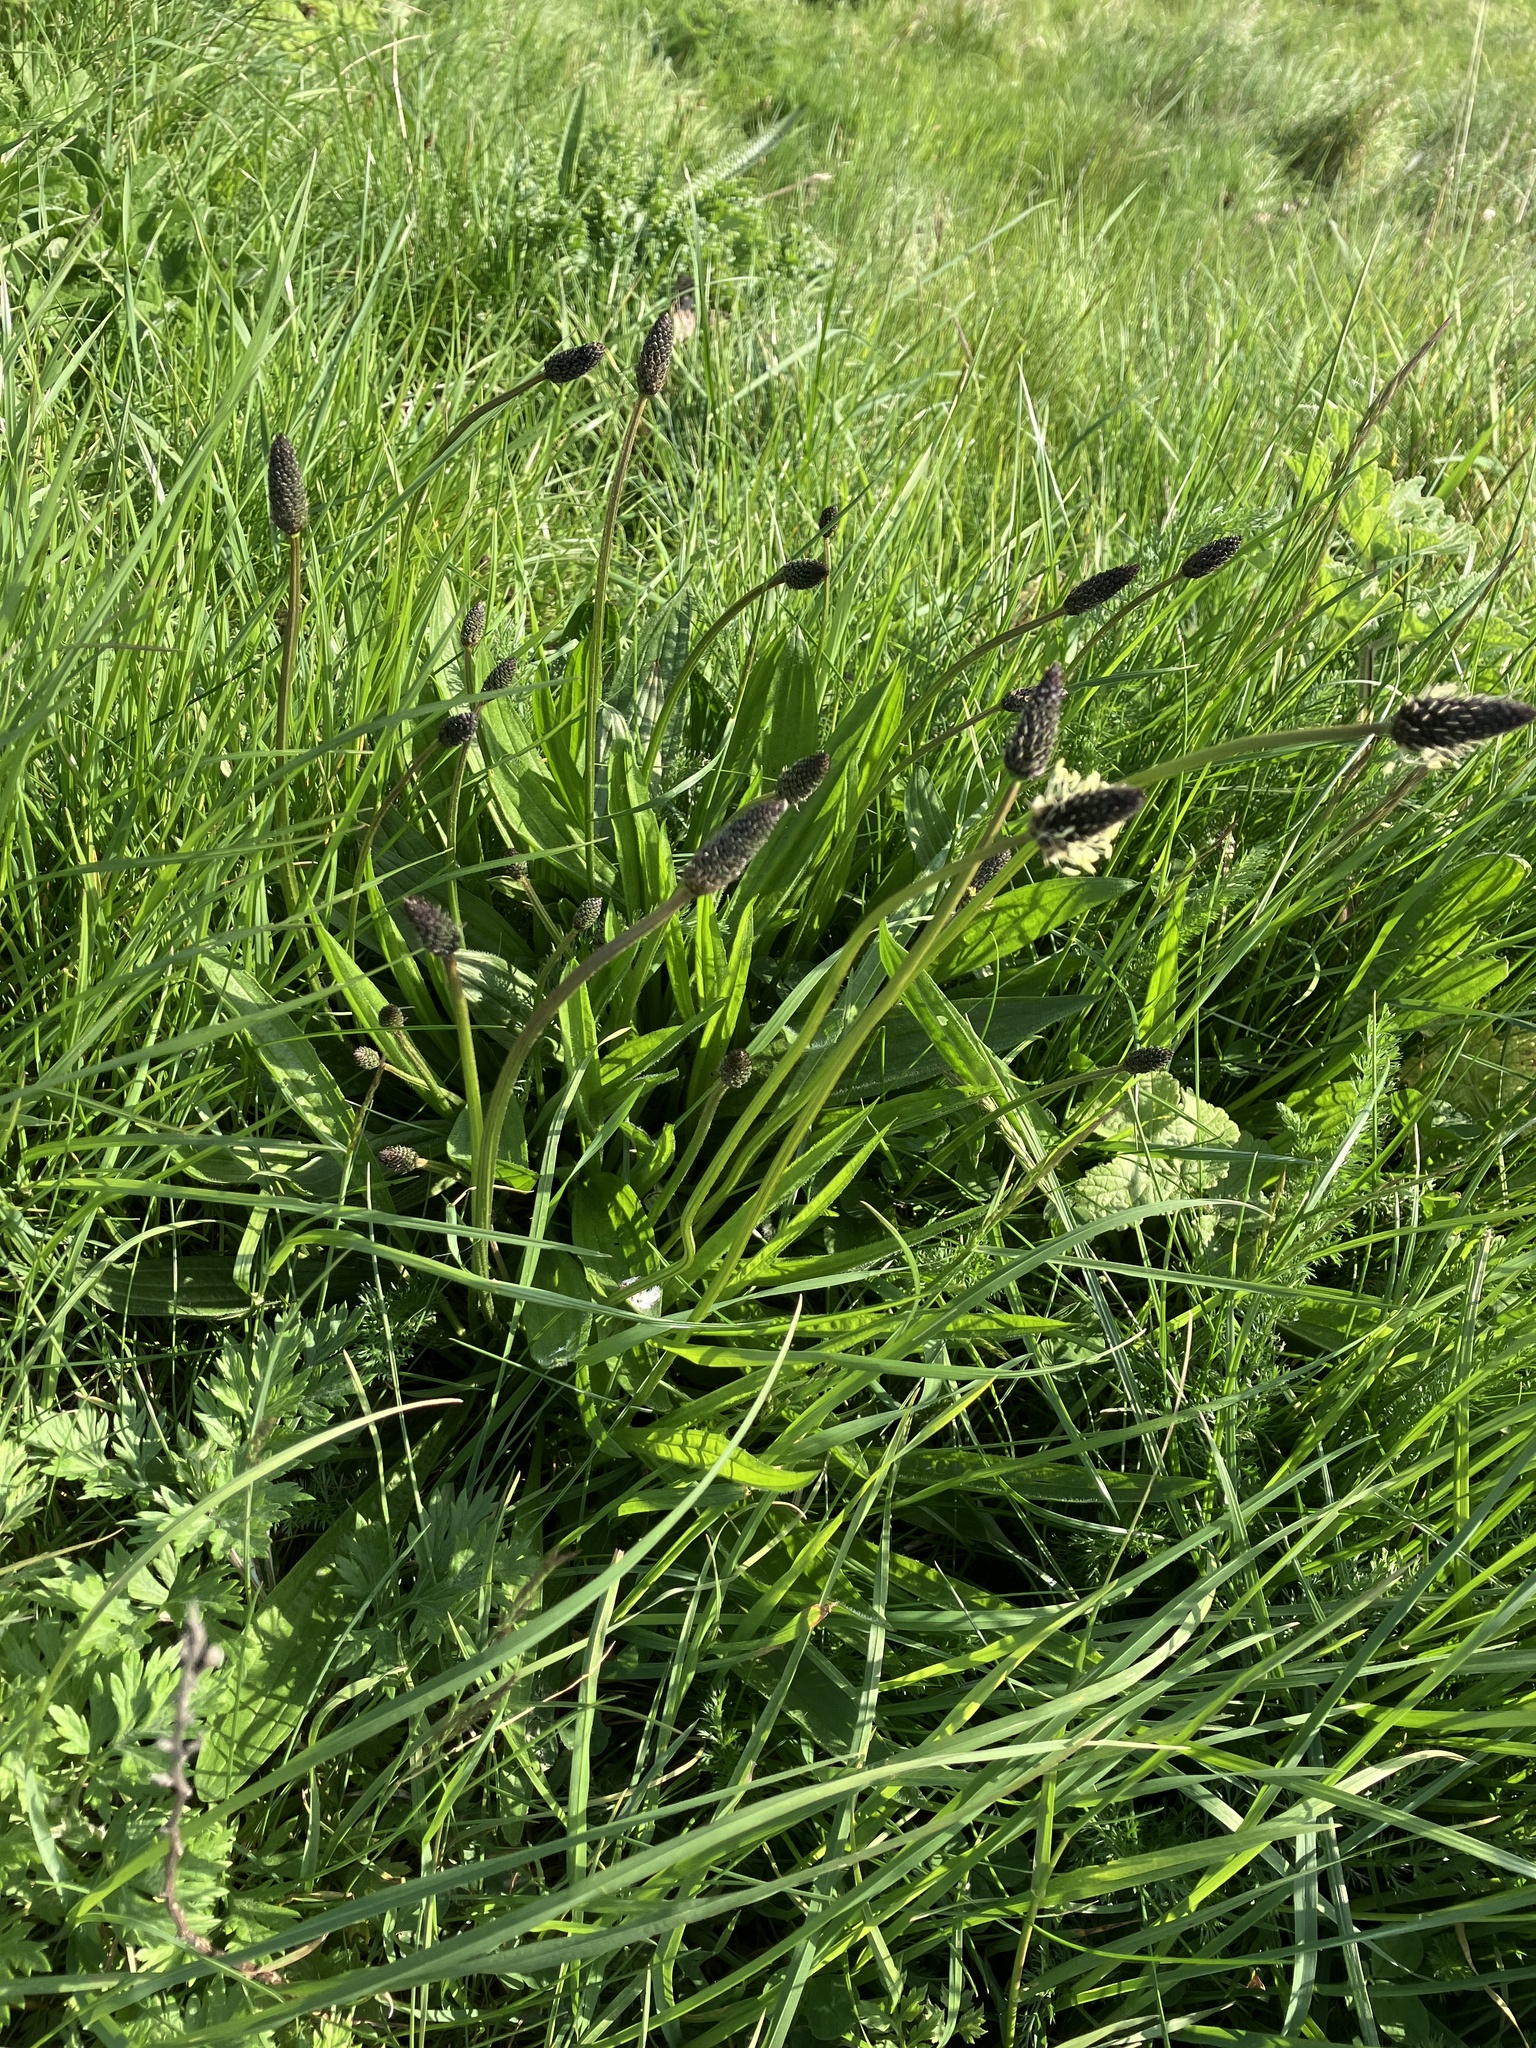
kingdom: Plantae
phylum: Tracheophyta
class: Magnoliopsida
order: Lamiales
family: Plantaginaceae
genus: Plantago
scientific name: Plantago lanceolata
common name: Ribwort plantain
